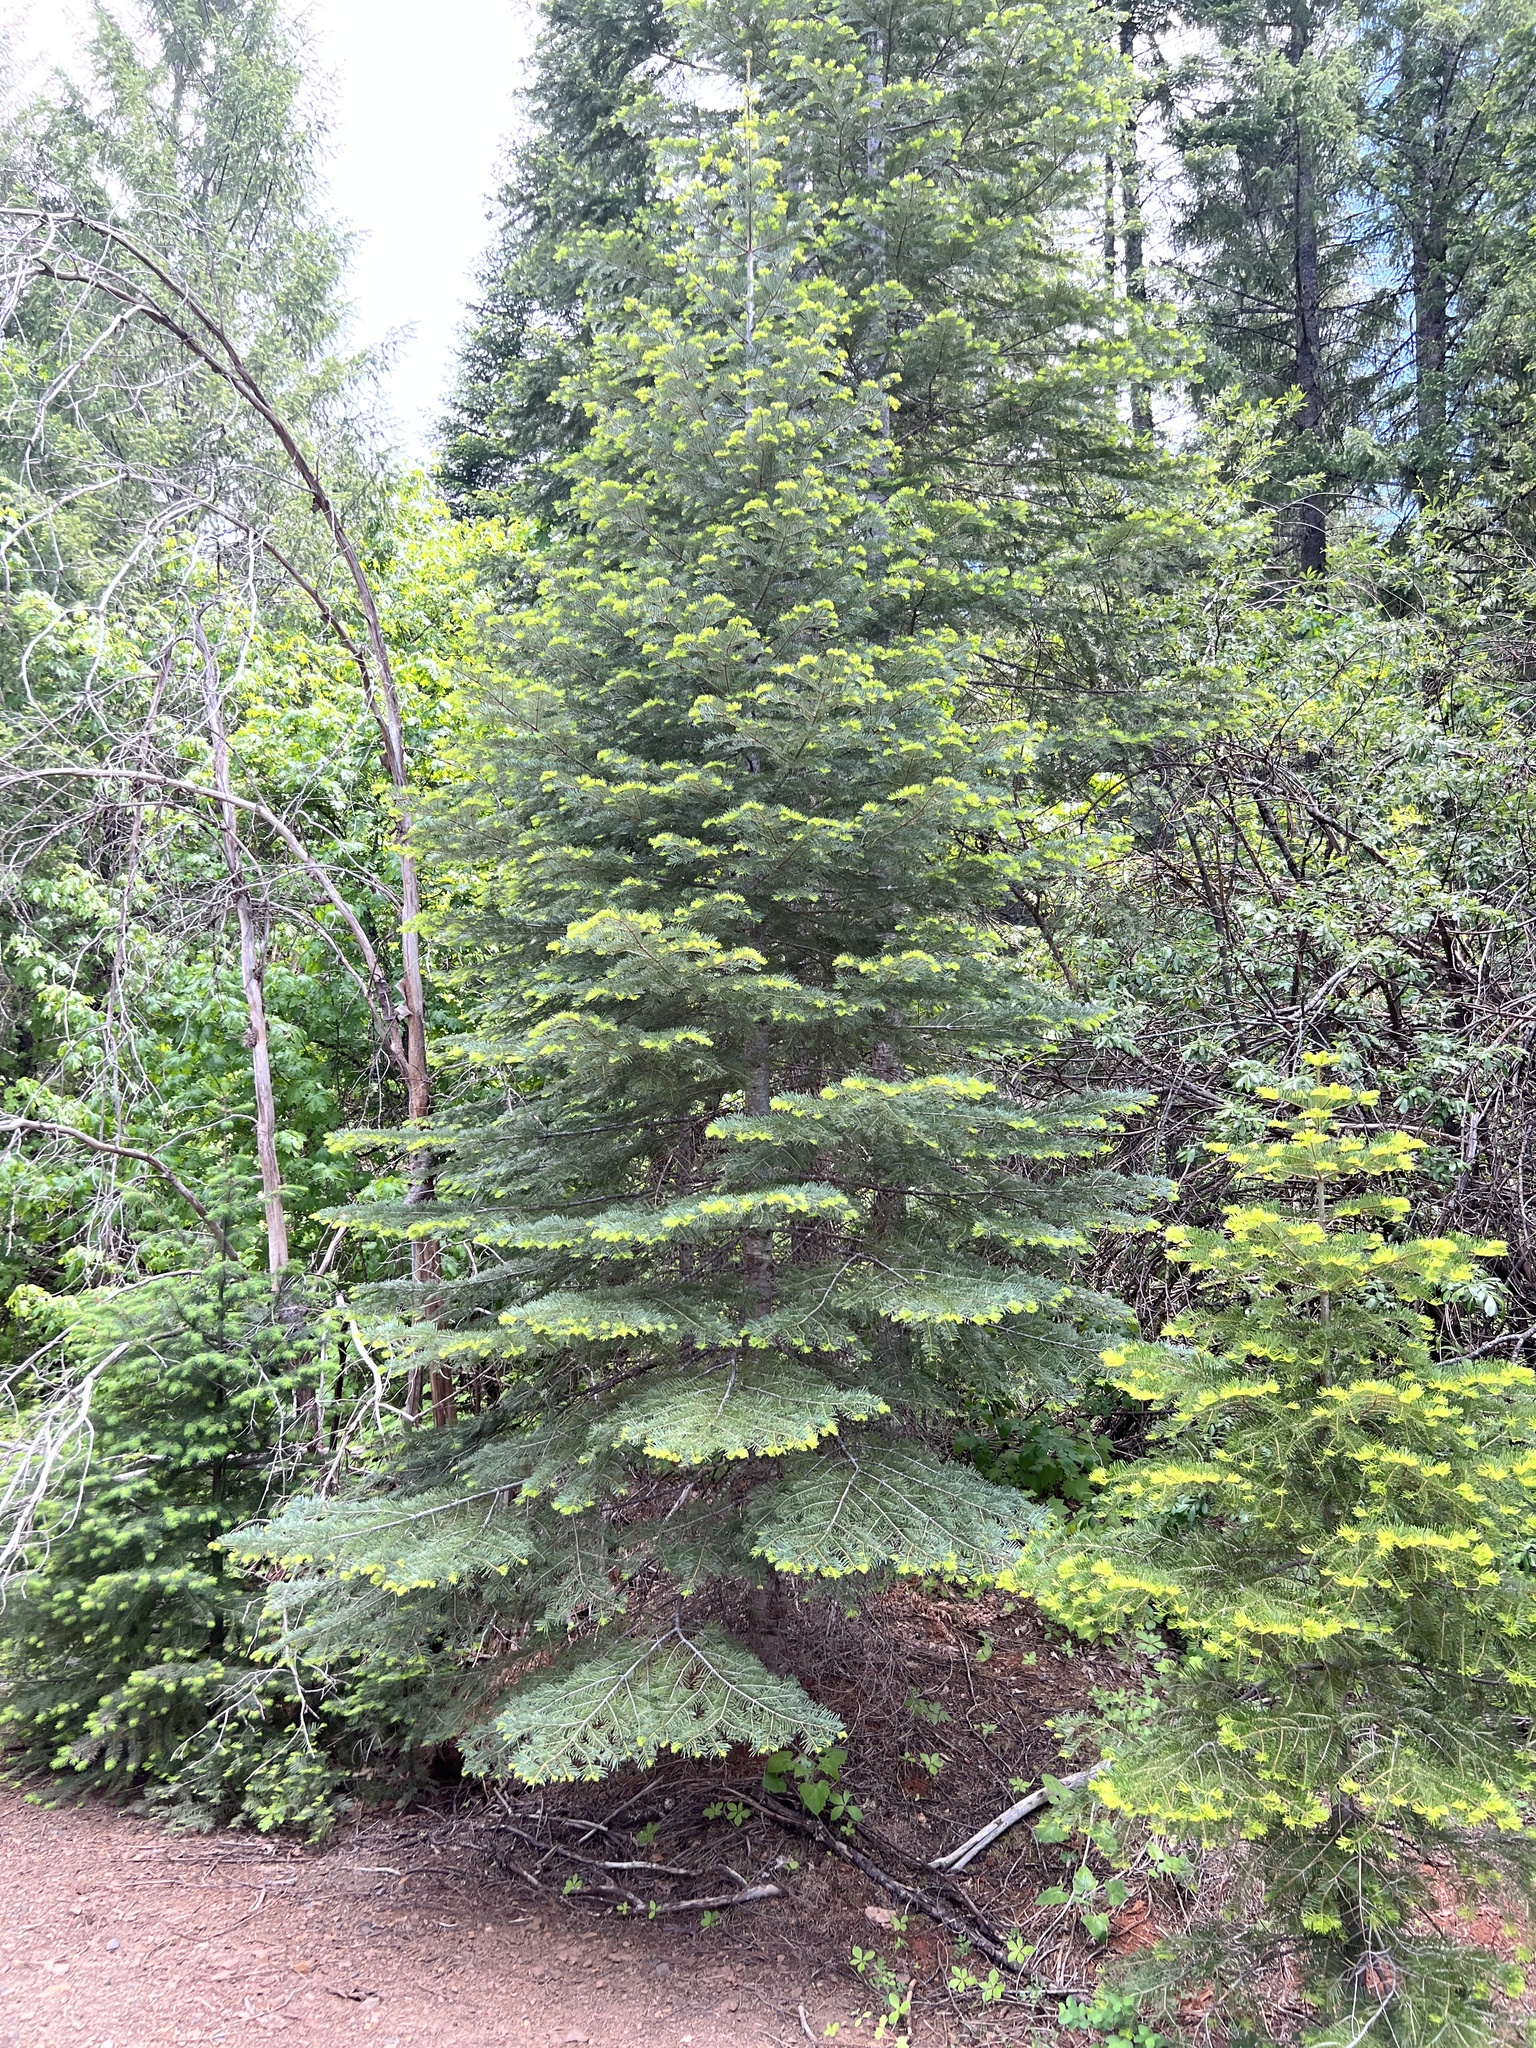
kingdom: Plantae
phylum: Tracheophyta
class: Pinopsida
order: Pinales
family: Pinaceae
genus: Abies
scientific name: Abies concolor
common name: Colorado fir
